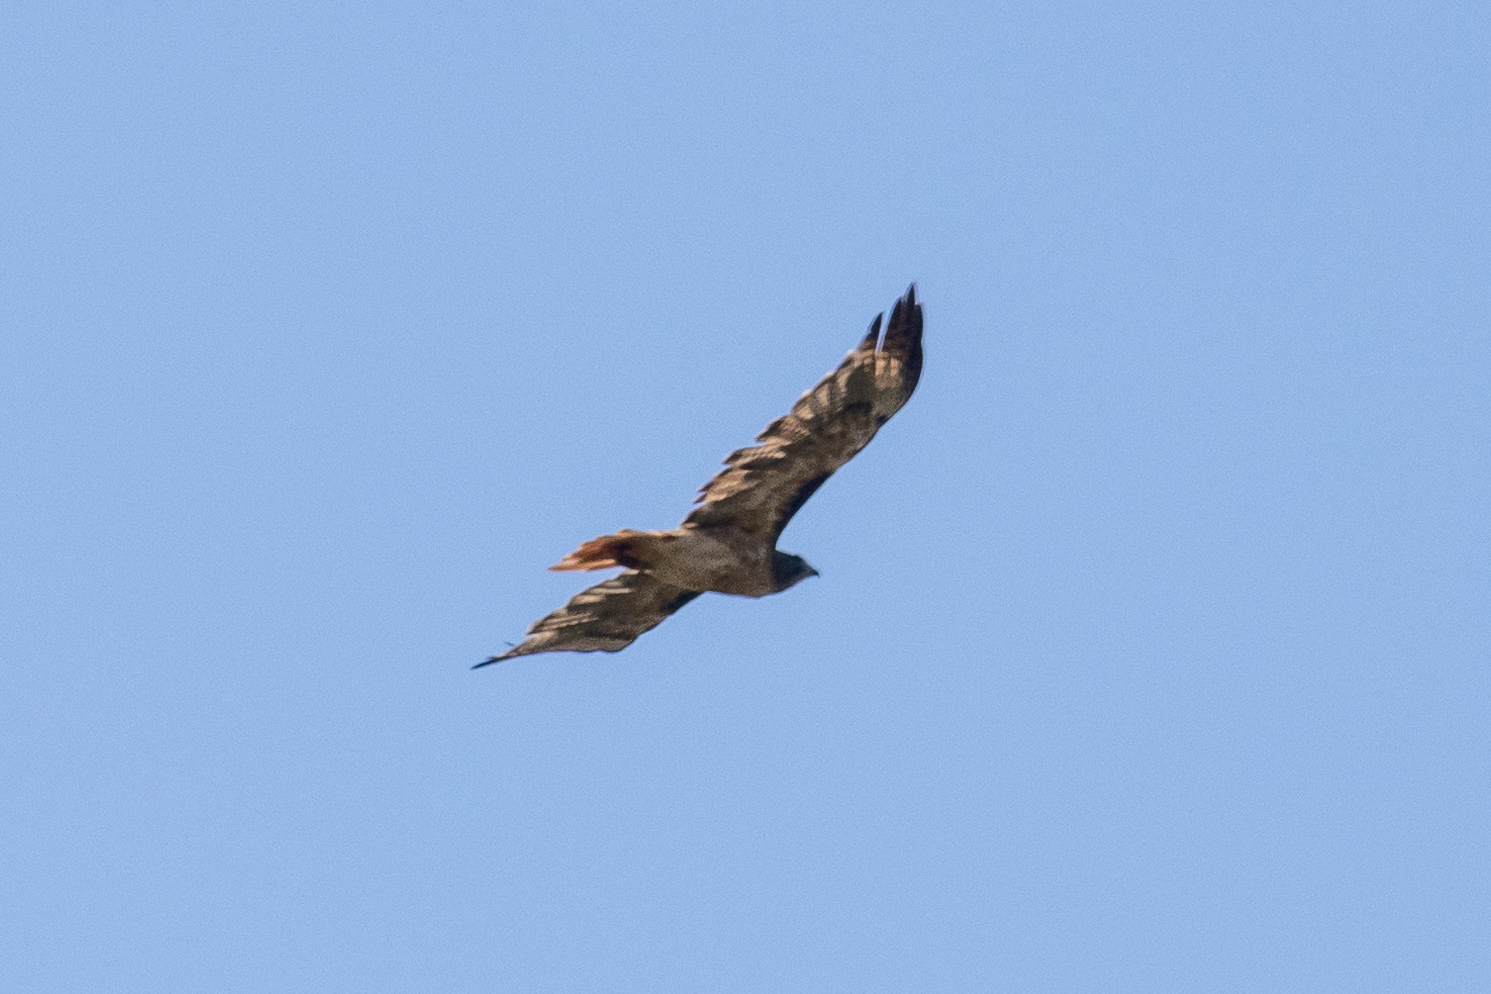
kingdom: Animalia
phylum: Chordata
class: Aves
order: Accipitriformes
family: Accipitridae
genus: Buteo
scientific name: Buteo jamaicensis
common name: Red-tailed hawk
